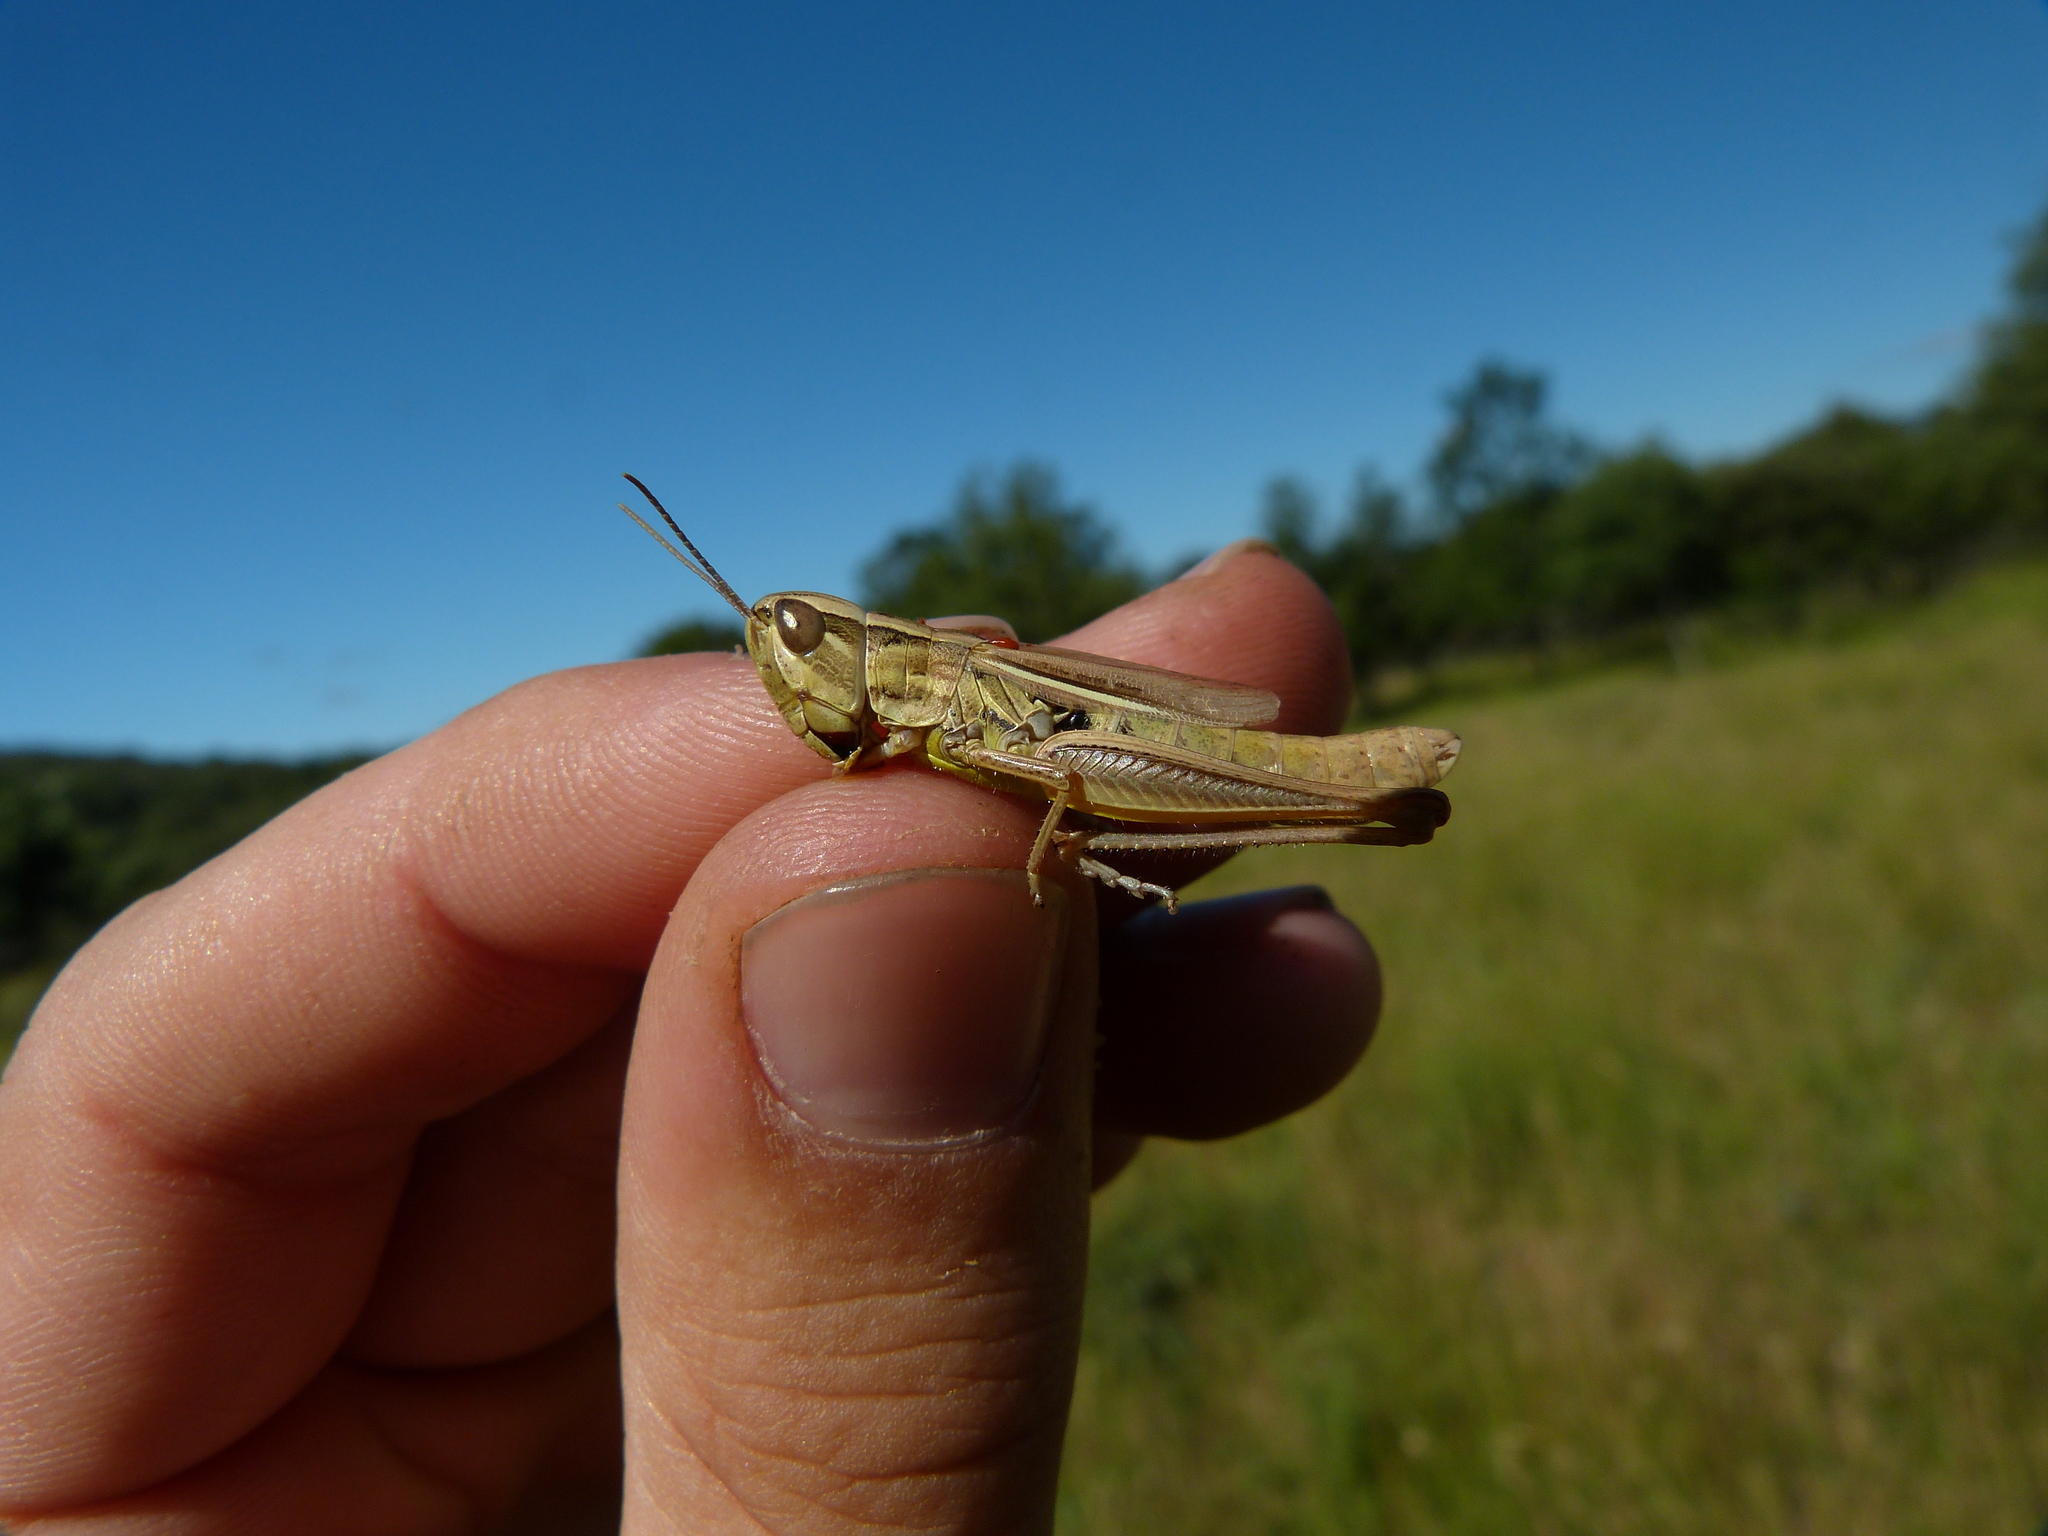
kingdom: Animalia
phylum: Arthropoda
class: Insecta
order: Orthoptera
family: Acrididae
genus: Euchorthippus
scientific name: Euchorthippus declivus
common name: Common straw grasshopper
